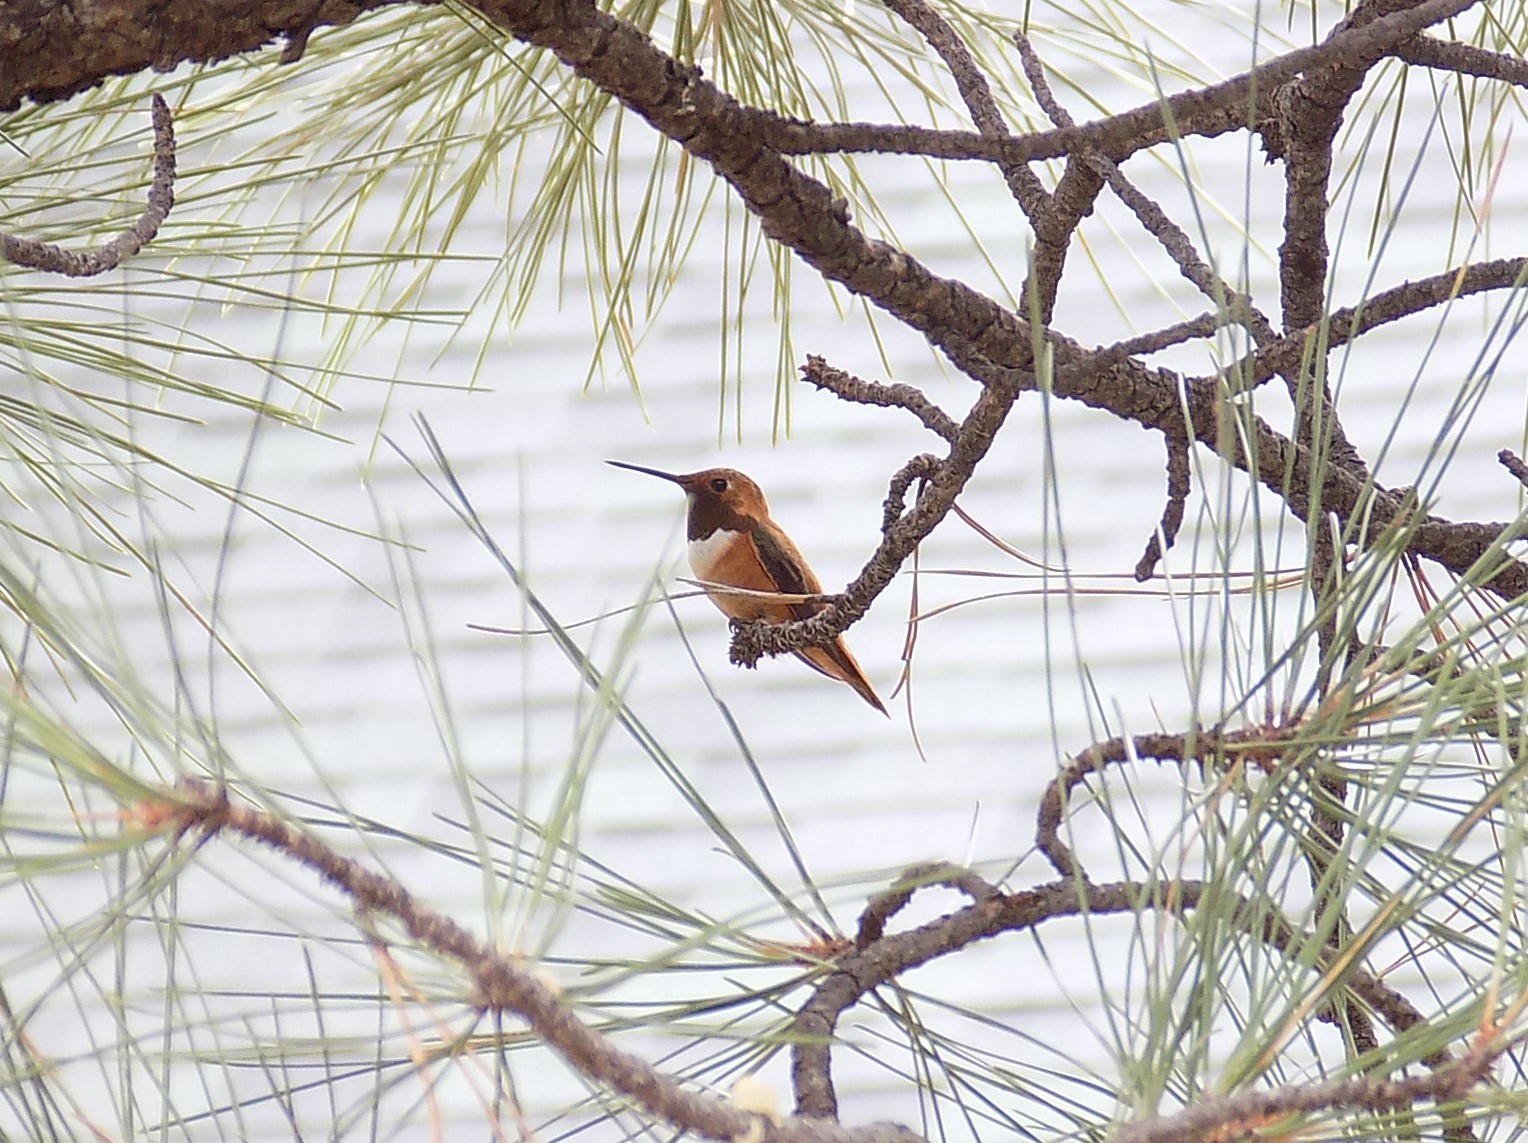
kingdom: Animalia
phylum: Chordata
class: Aves
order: Apodiformes
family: Trochilidae
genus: Selasphorus
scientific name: Selasphorus rufus
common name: Rufous hummingbird
